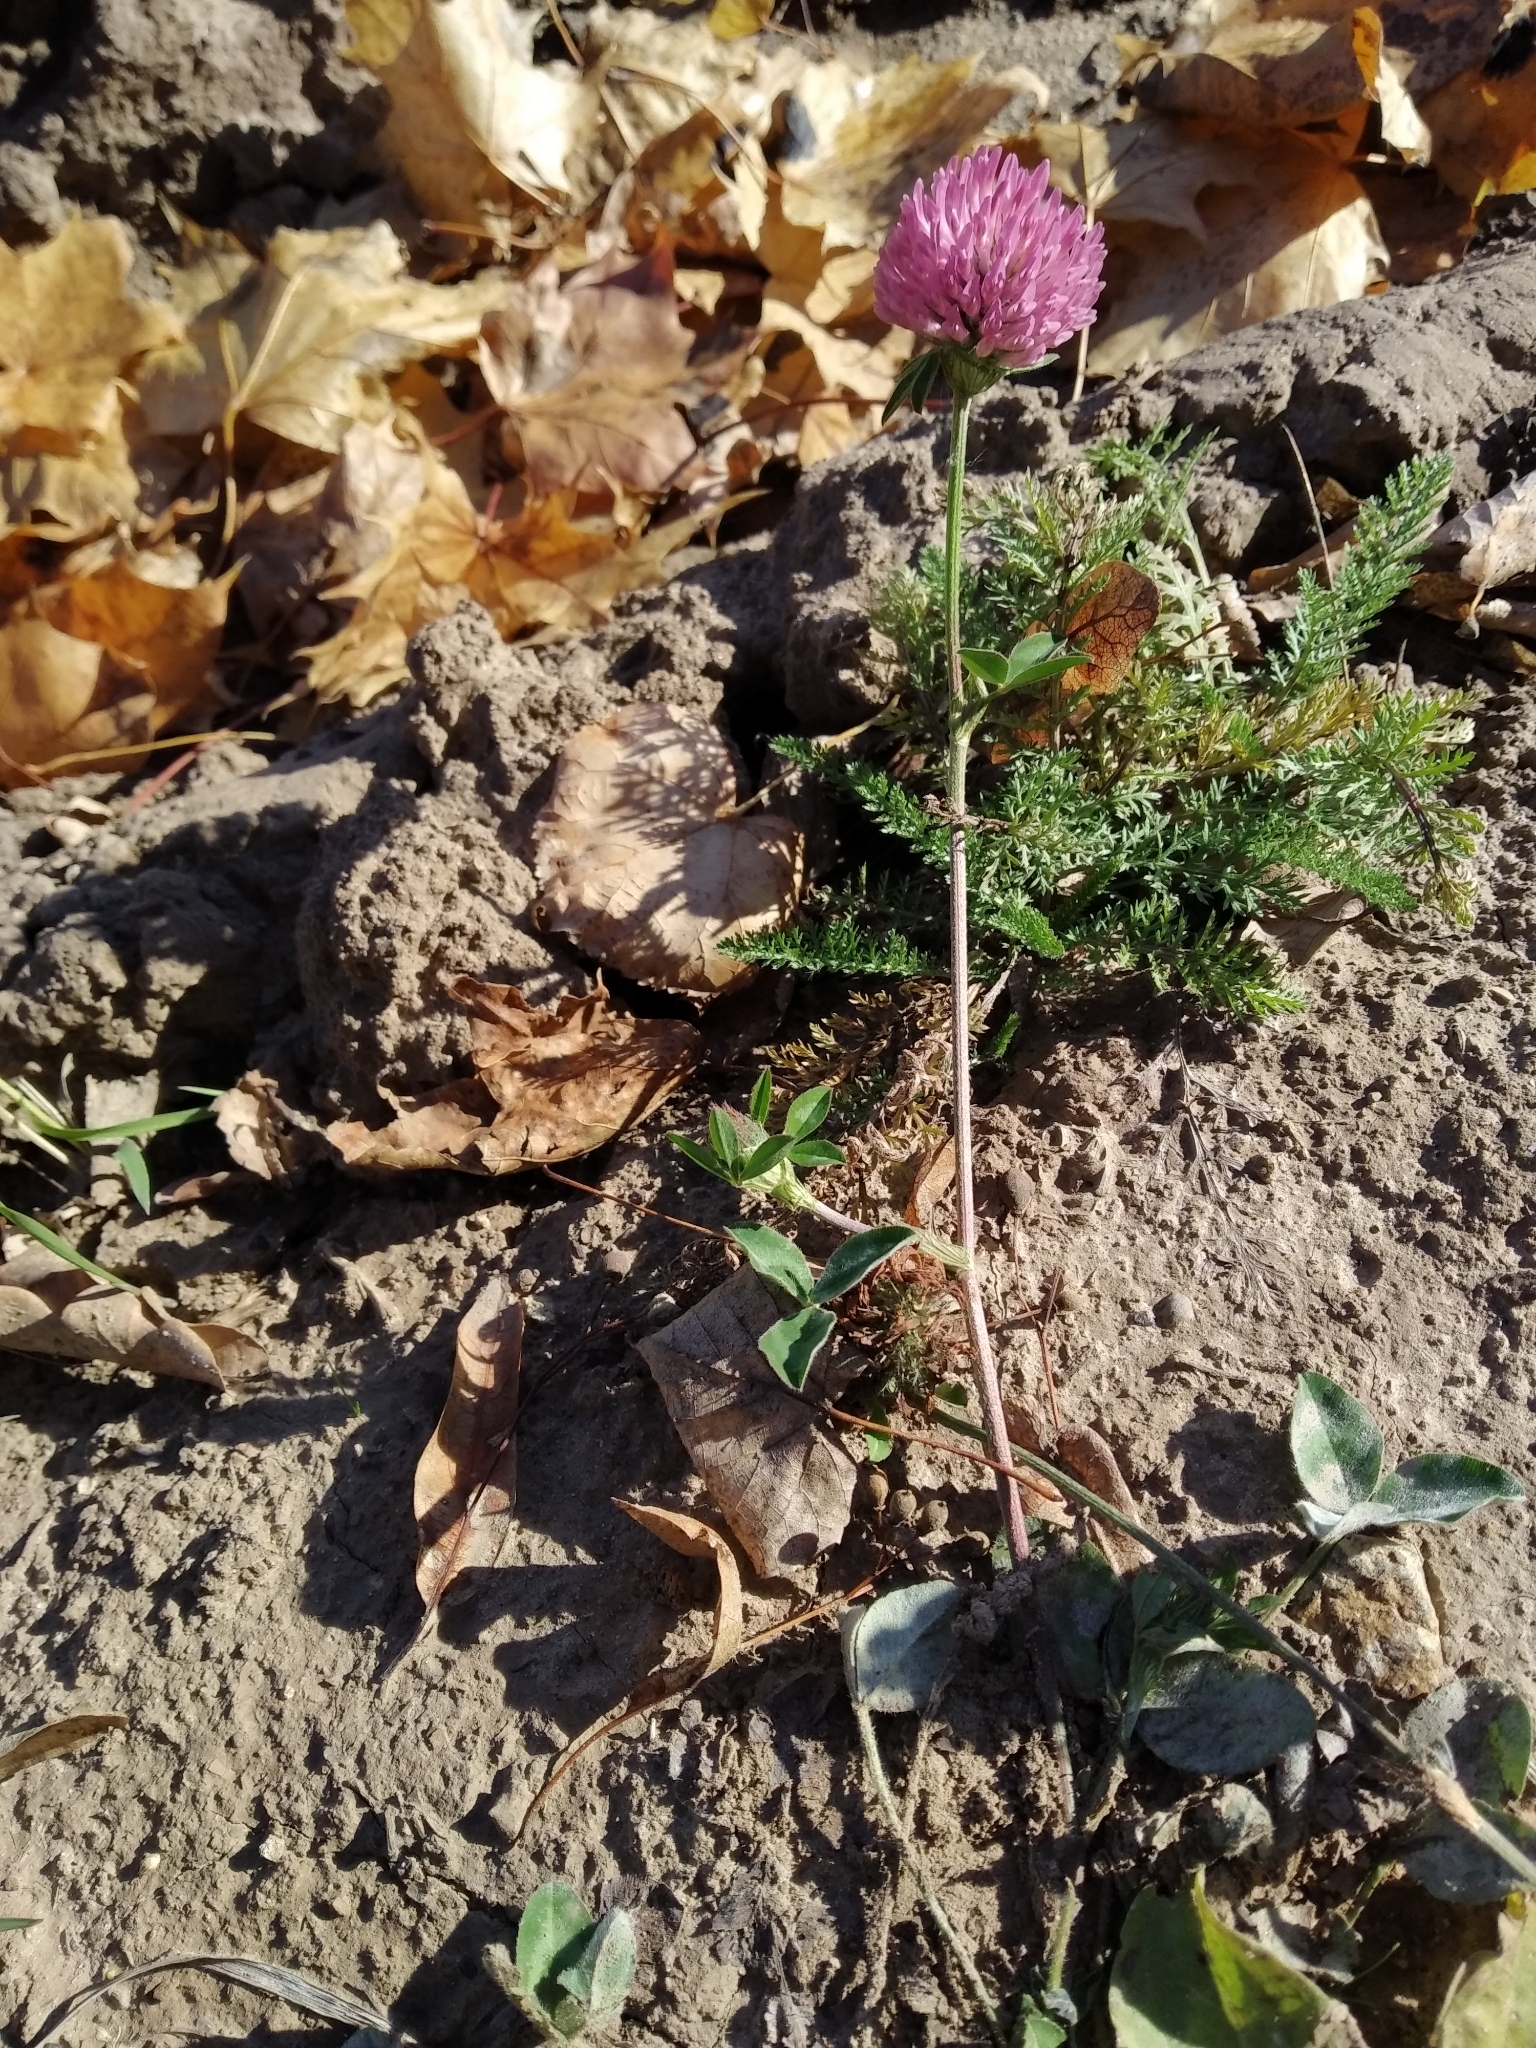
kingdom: Plantae
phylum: Tracheophyta
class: Magnoliopsida
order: Fabales
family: Fabaceae
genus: Trifolium
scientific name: Trifolium pratense
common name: Red clover
